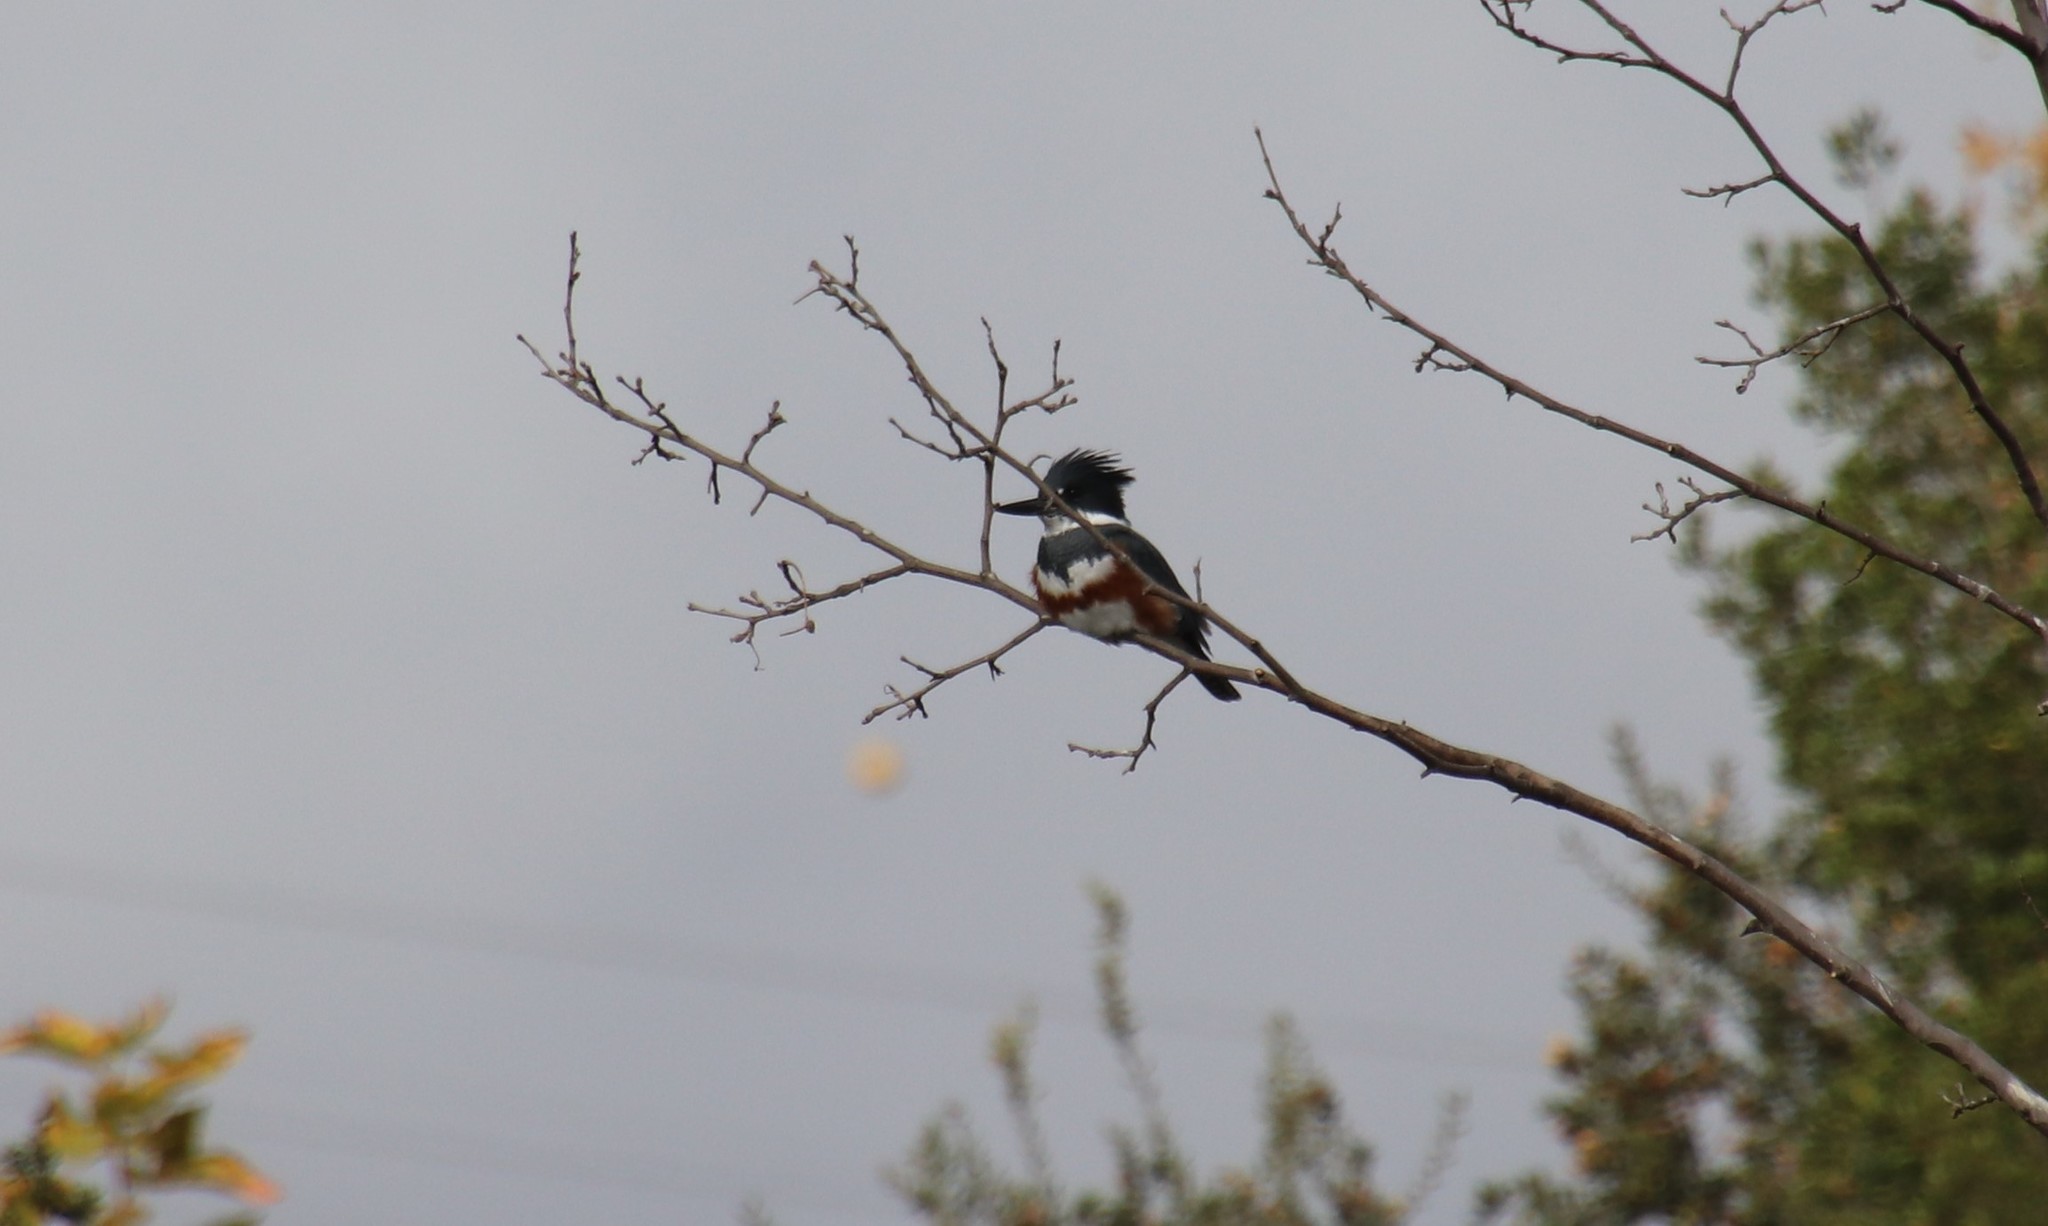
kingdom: Animalia
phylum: Chordata
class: Aves
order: Coraciiformes
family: Alcedinidae
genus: Megaceryle
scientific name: Megaceryle alcyon
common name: Belted kingfisher
